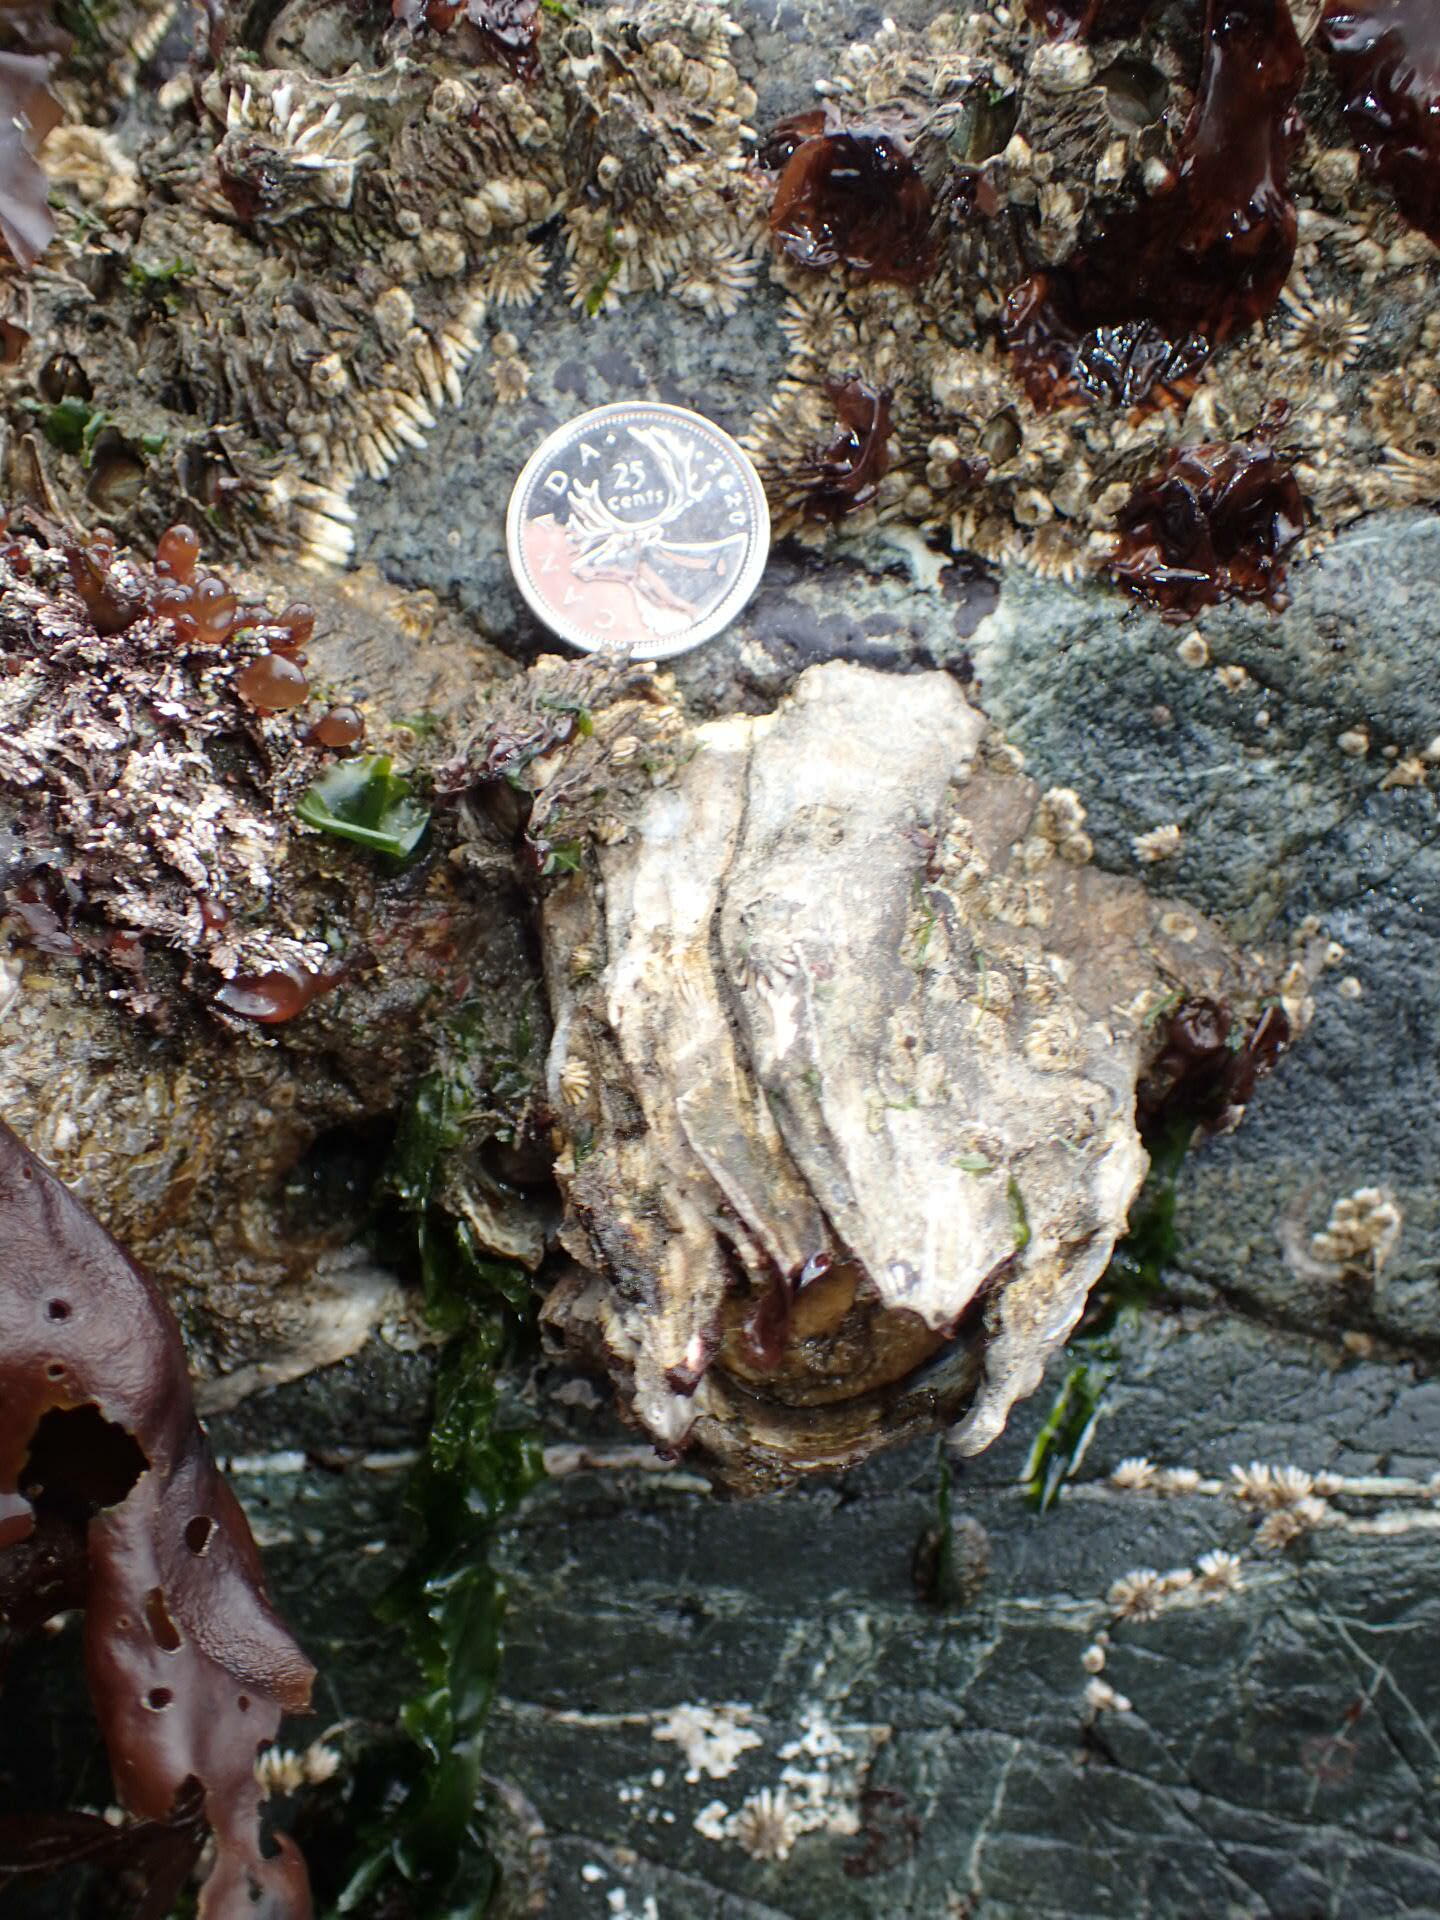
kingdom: Animalia
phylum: Arthropoda
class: Maxillopoda
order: Sessilia
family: Balanidae
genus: Balanus
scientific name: Balanus nubilus
